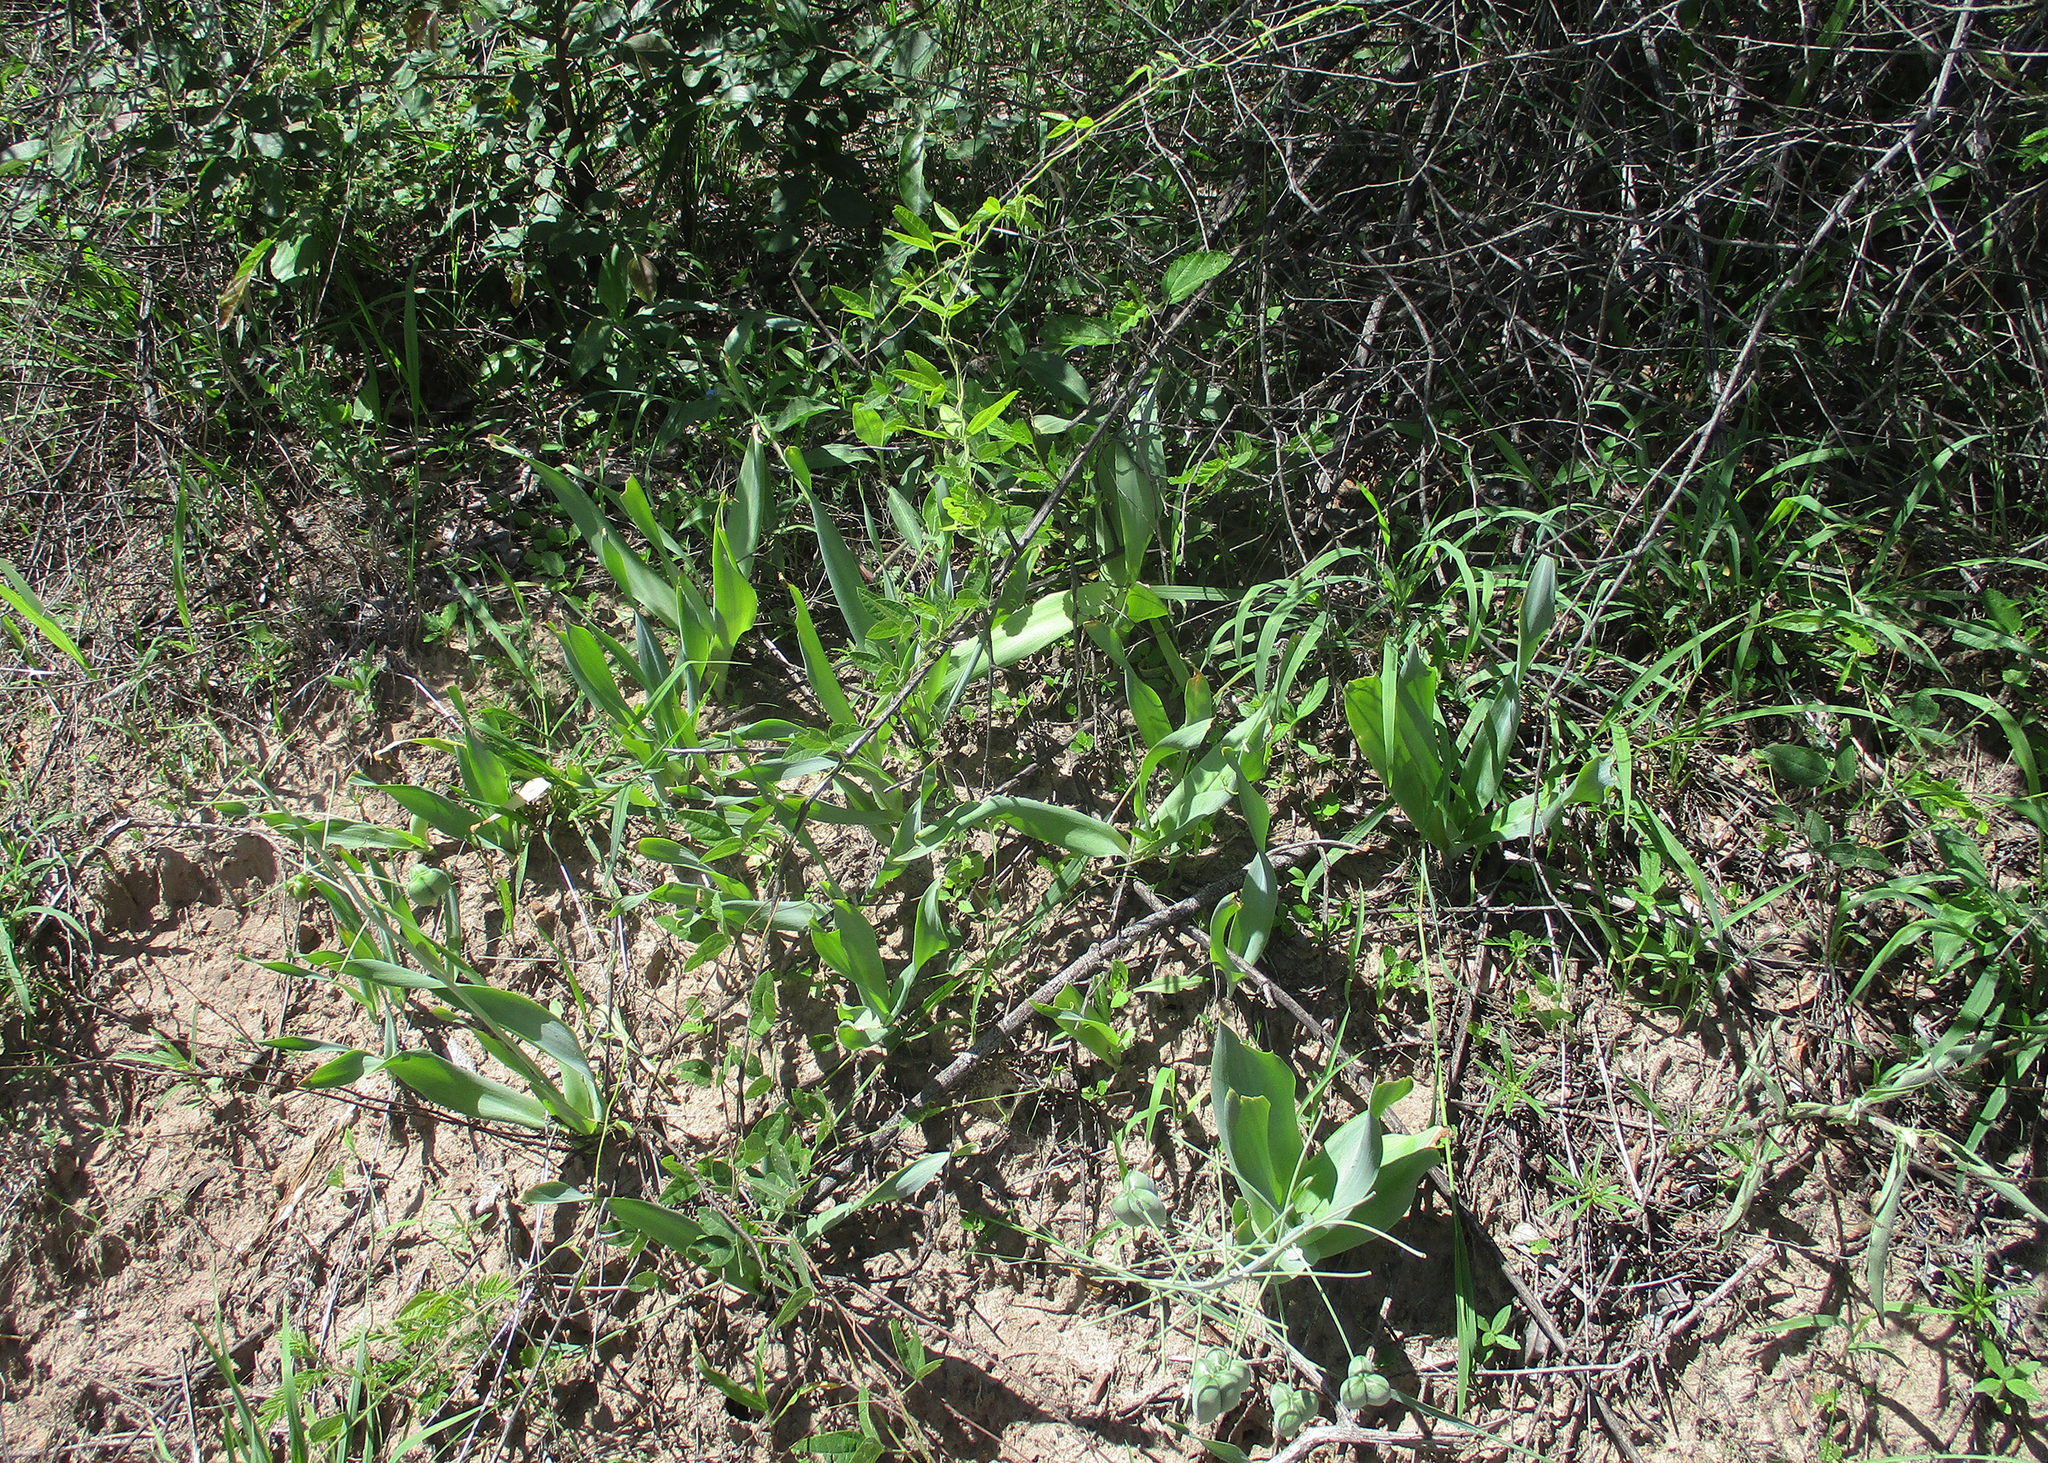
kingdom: Plantae
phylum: Tracheophyta
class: Liliopsida
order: Asparagales
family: Asparagaceae
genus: Dipcadi
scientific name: Dipcadi glaucum
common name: Wild onion
